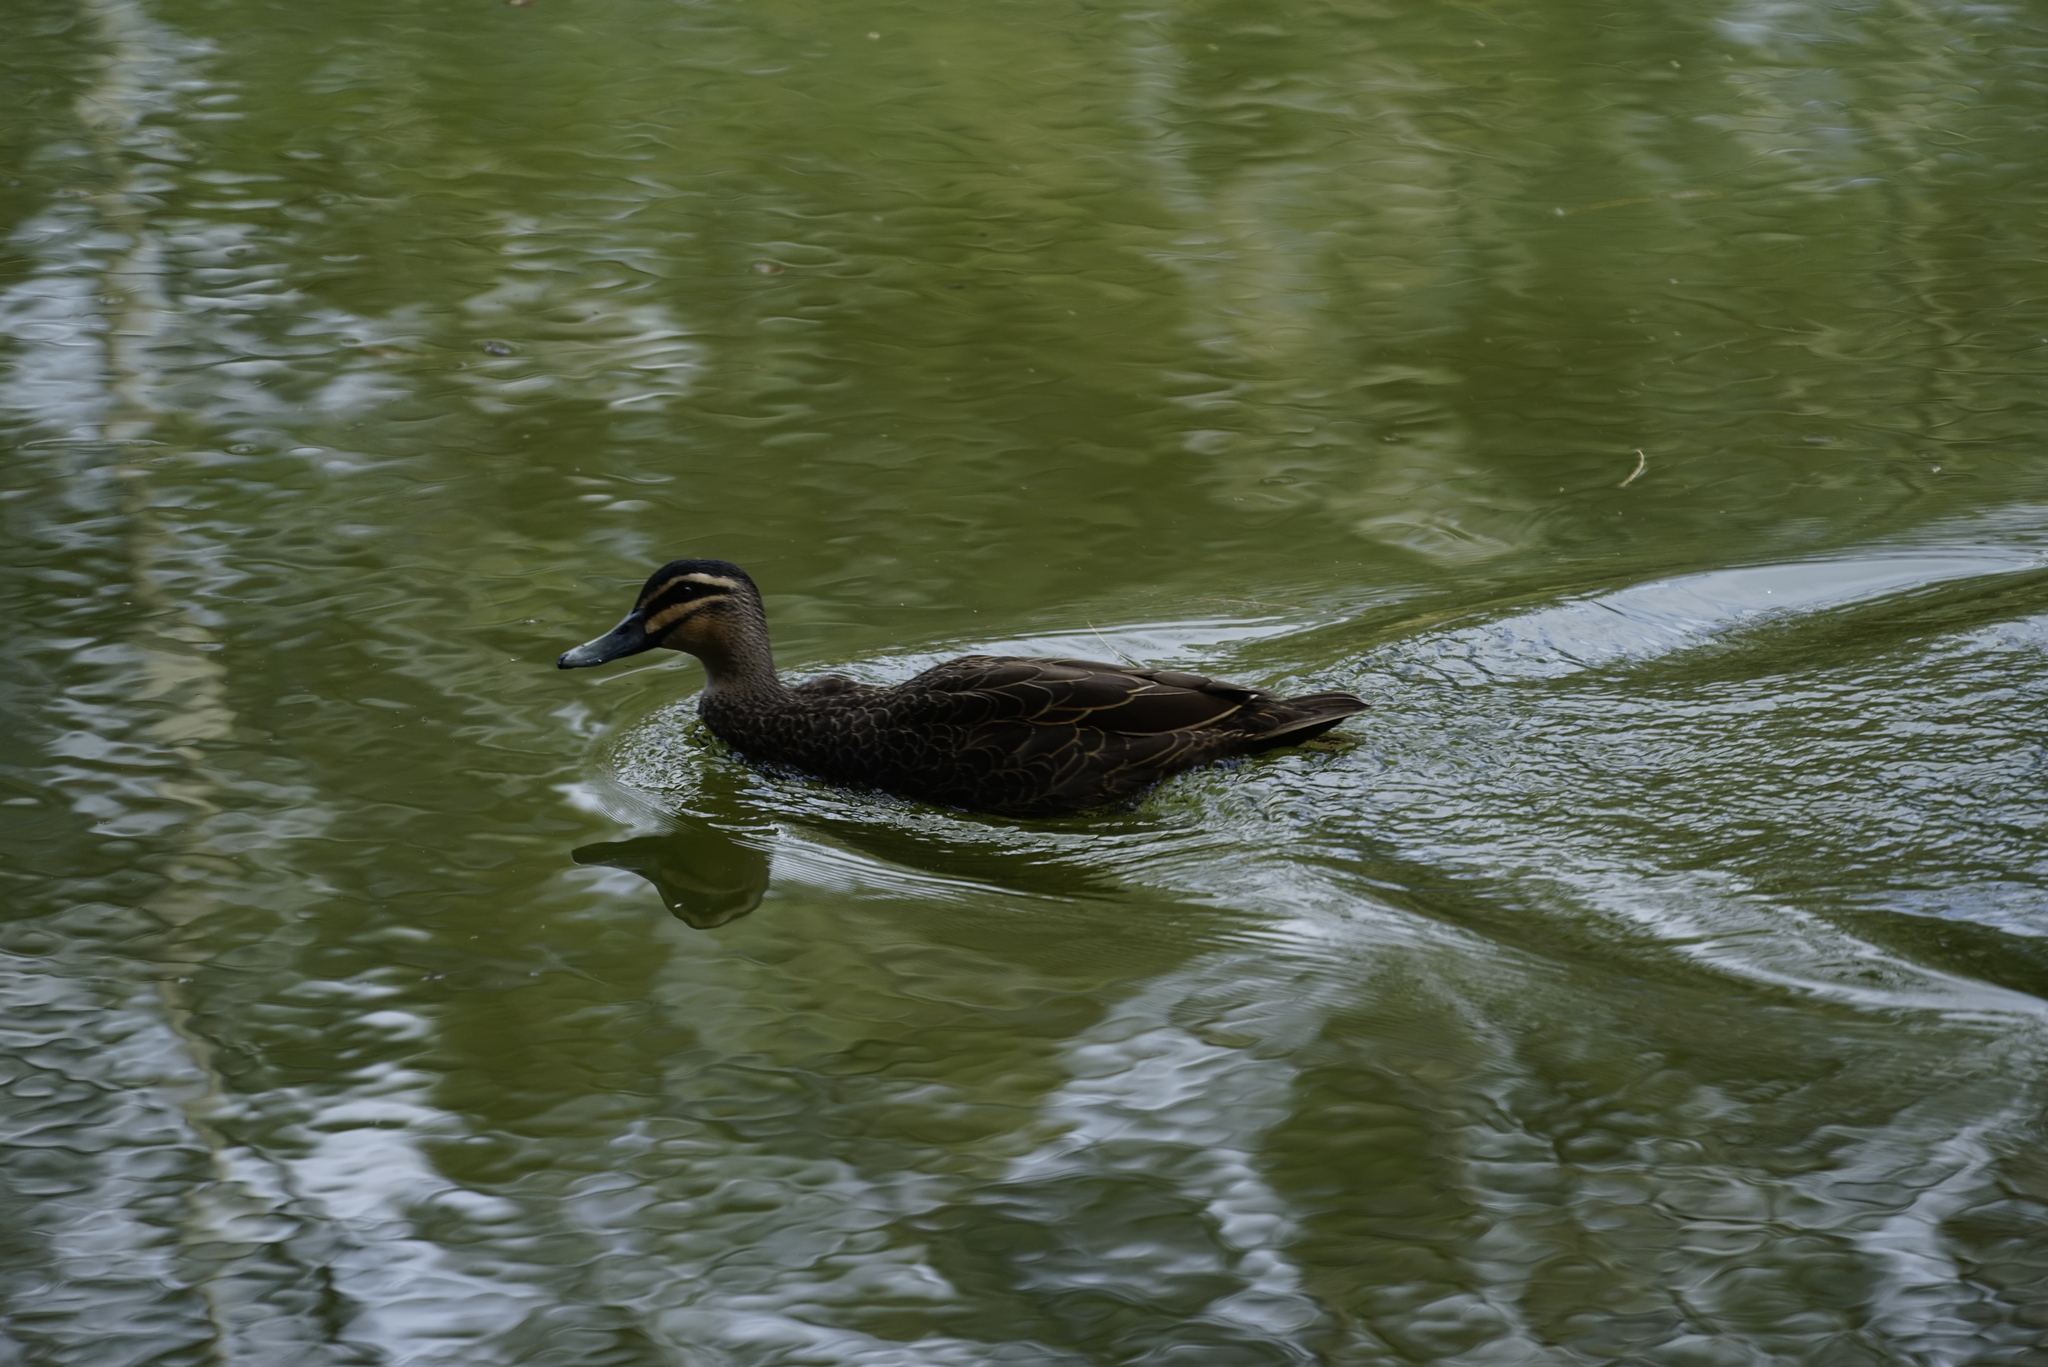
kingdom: Animalia
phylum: Chordata
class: Aves
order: Anseriformes
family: Anatidae
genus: Anas
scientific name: Anas superciliosa
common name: Pacific black duck
